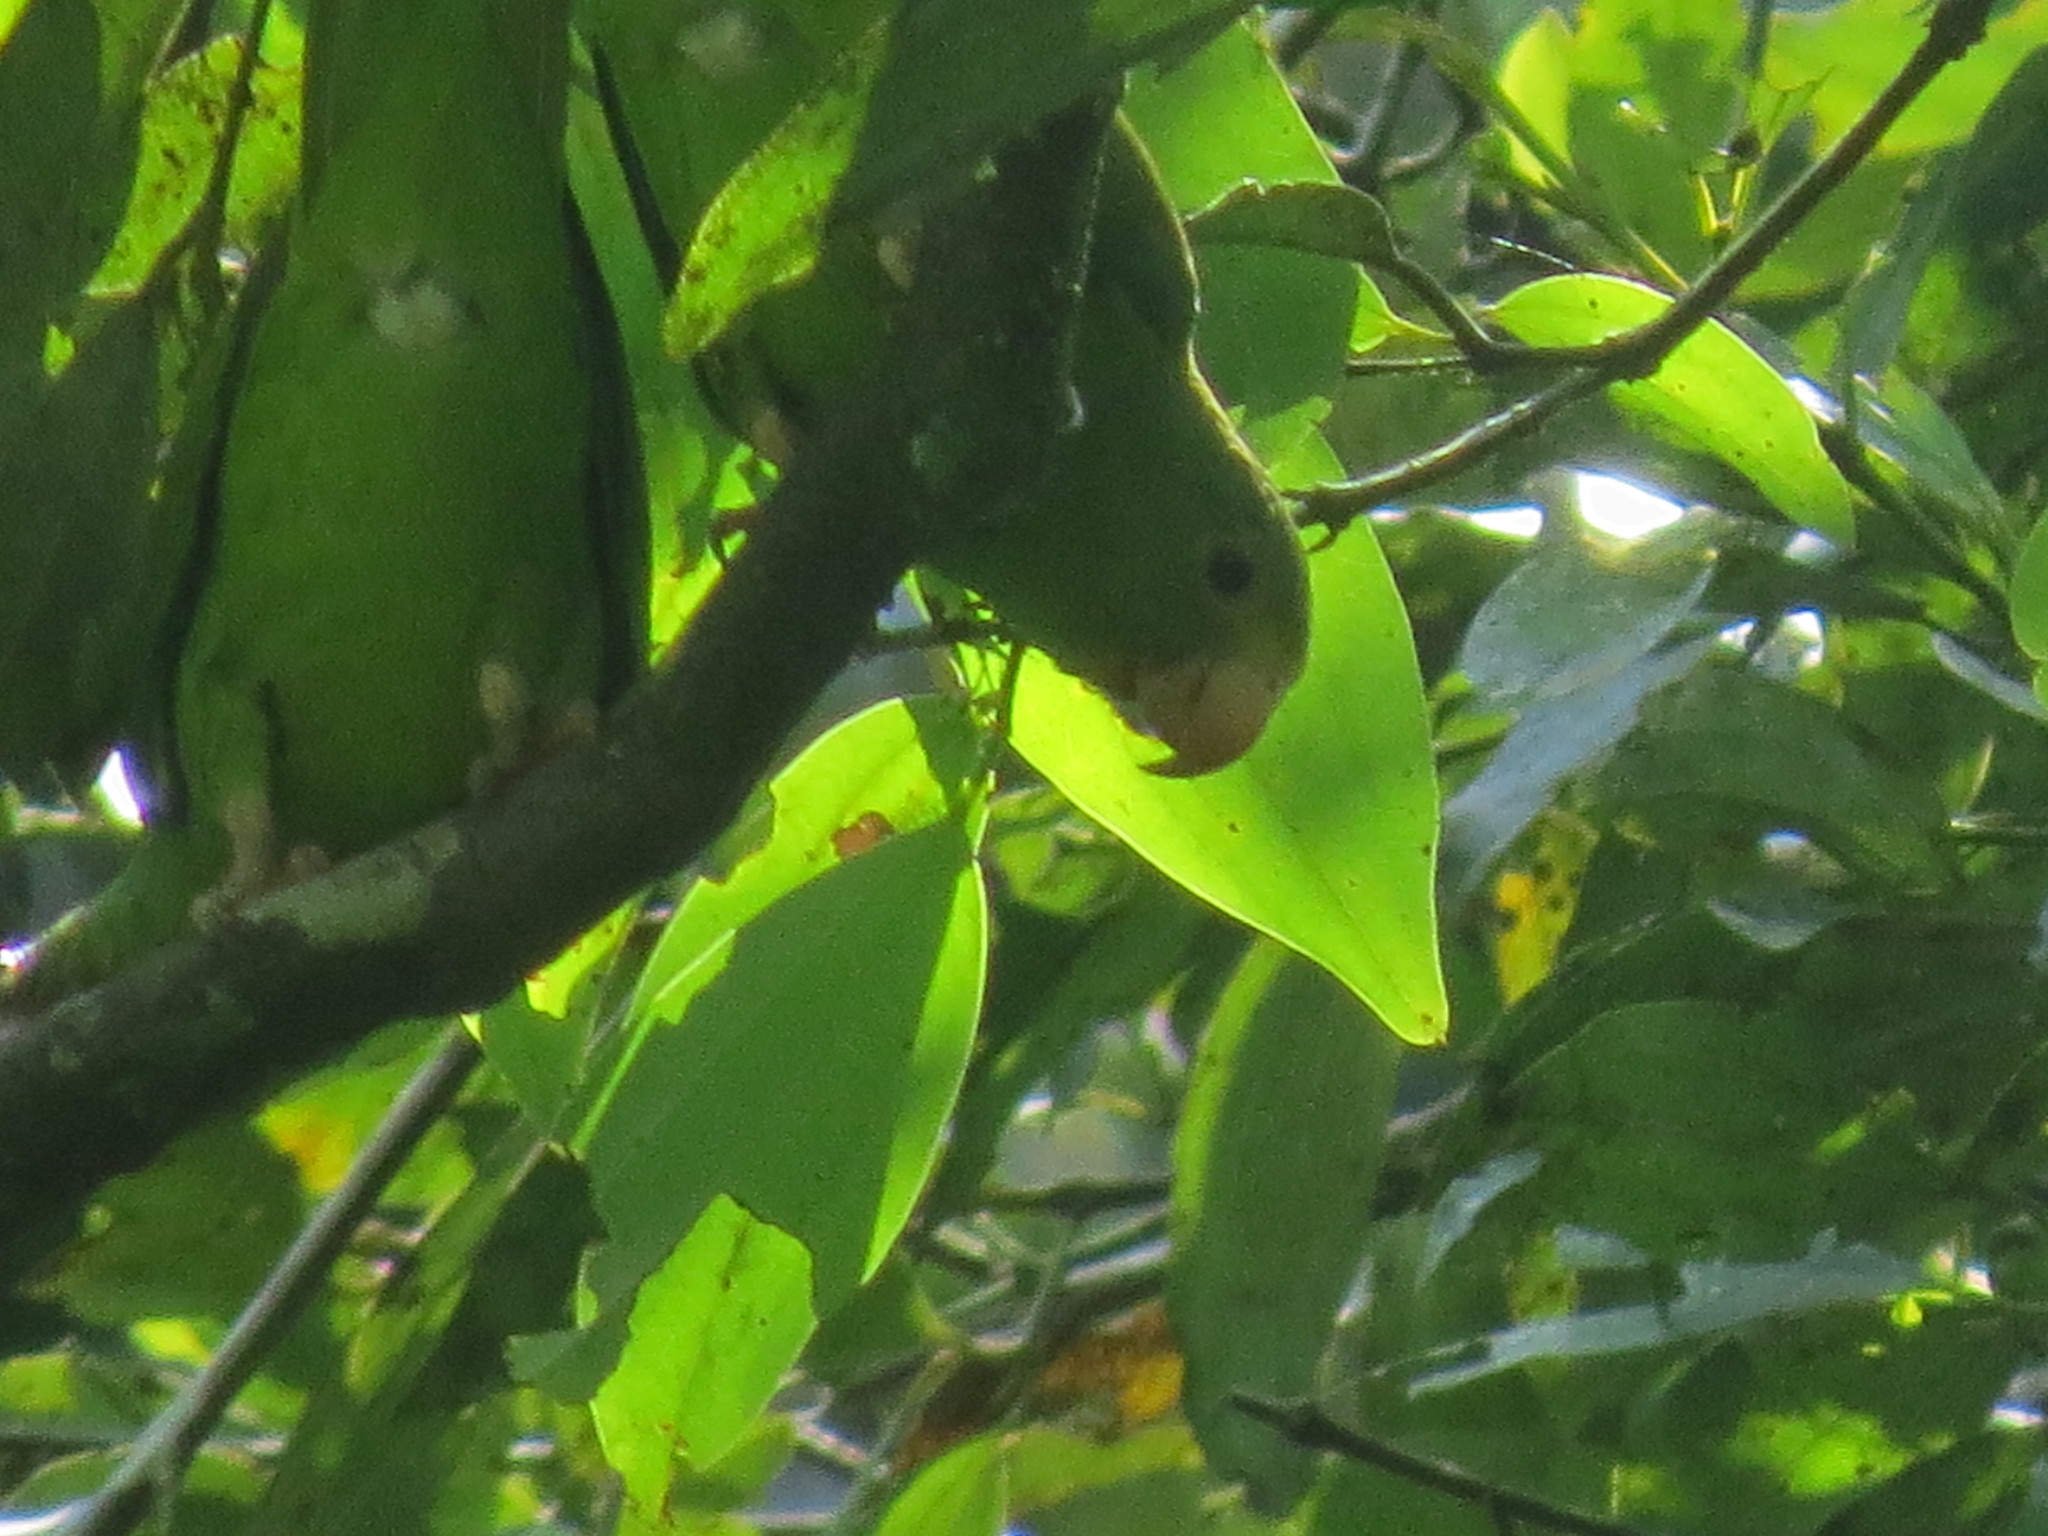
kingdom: Animalia
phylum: Chordata
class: Aves
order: Psittaciformes
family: Psittacidae
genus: Brotogeris
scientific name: Brotogeris cyanoptera
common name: Cobalt-winged parakeet
